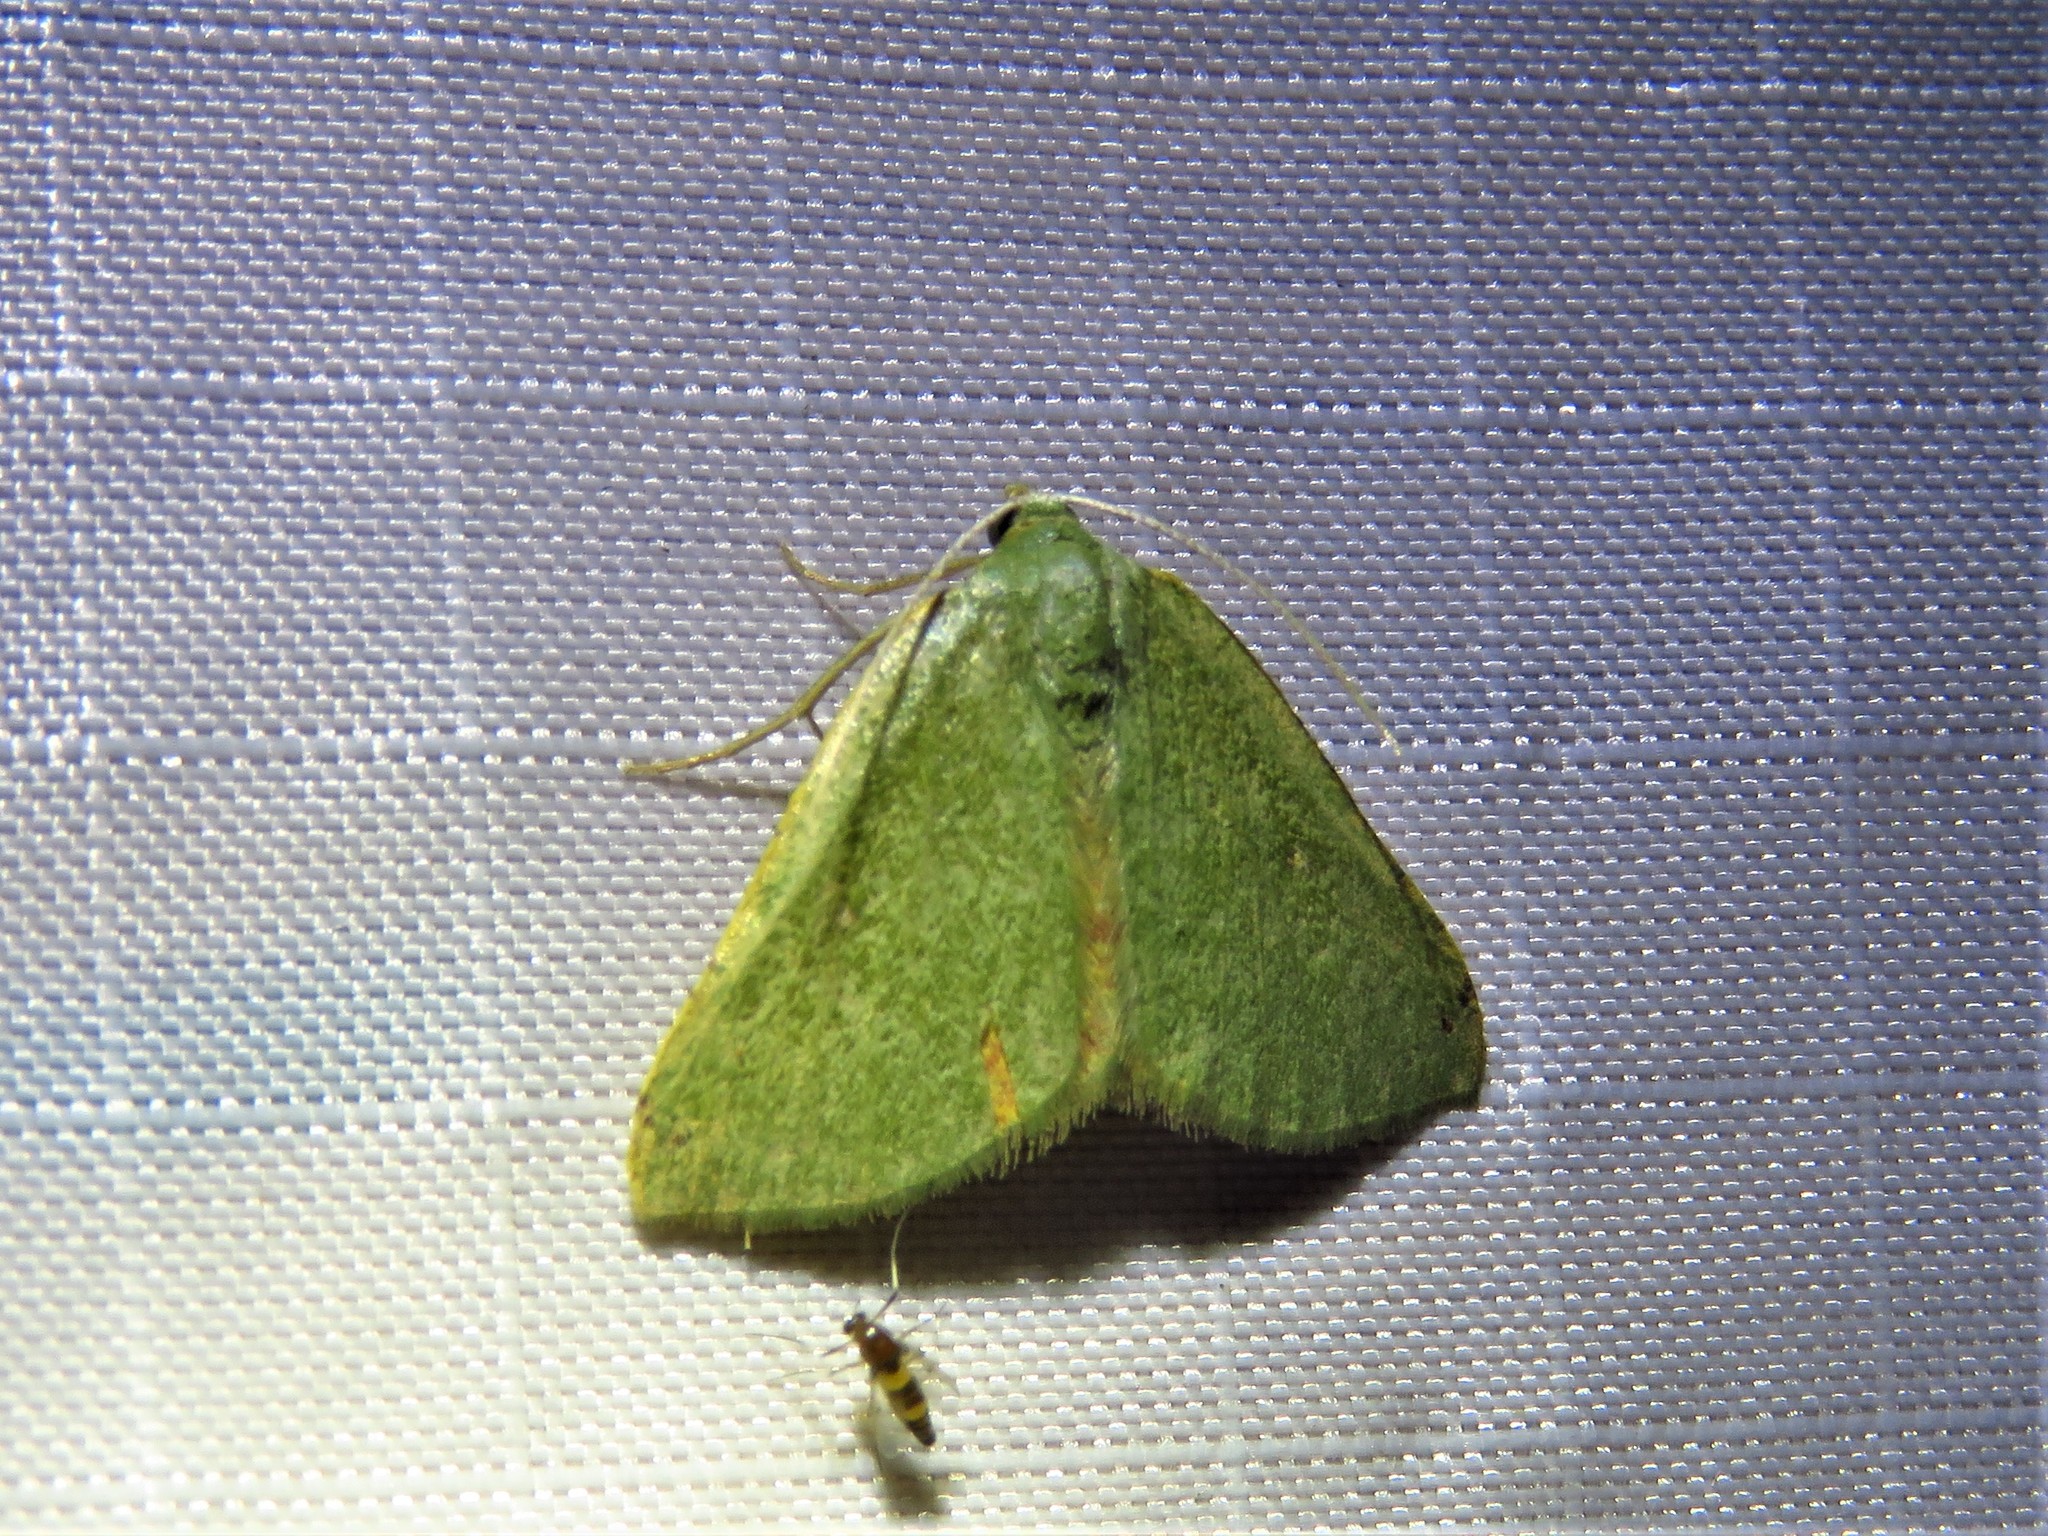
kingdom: Animalia
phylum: Arthropoda
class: Insecta
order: Lepidoptera
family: Geometridae
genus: Chloraspilates
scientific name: Chloraspilates bicoloraria
